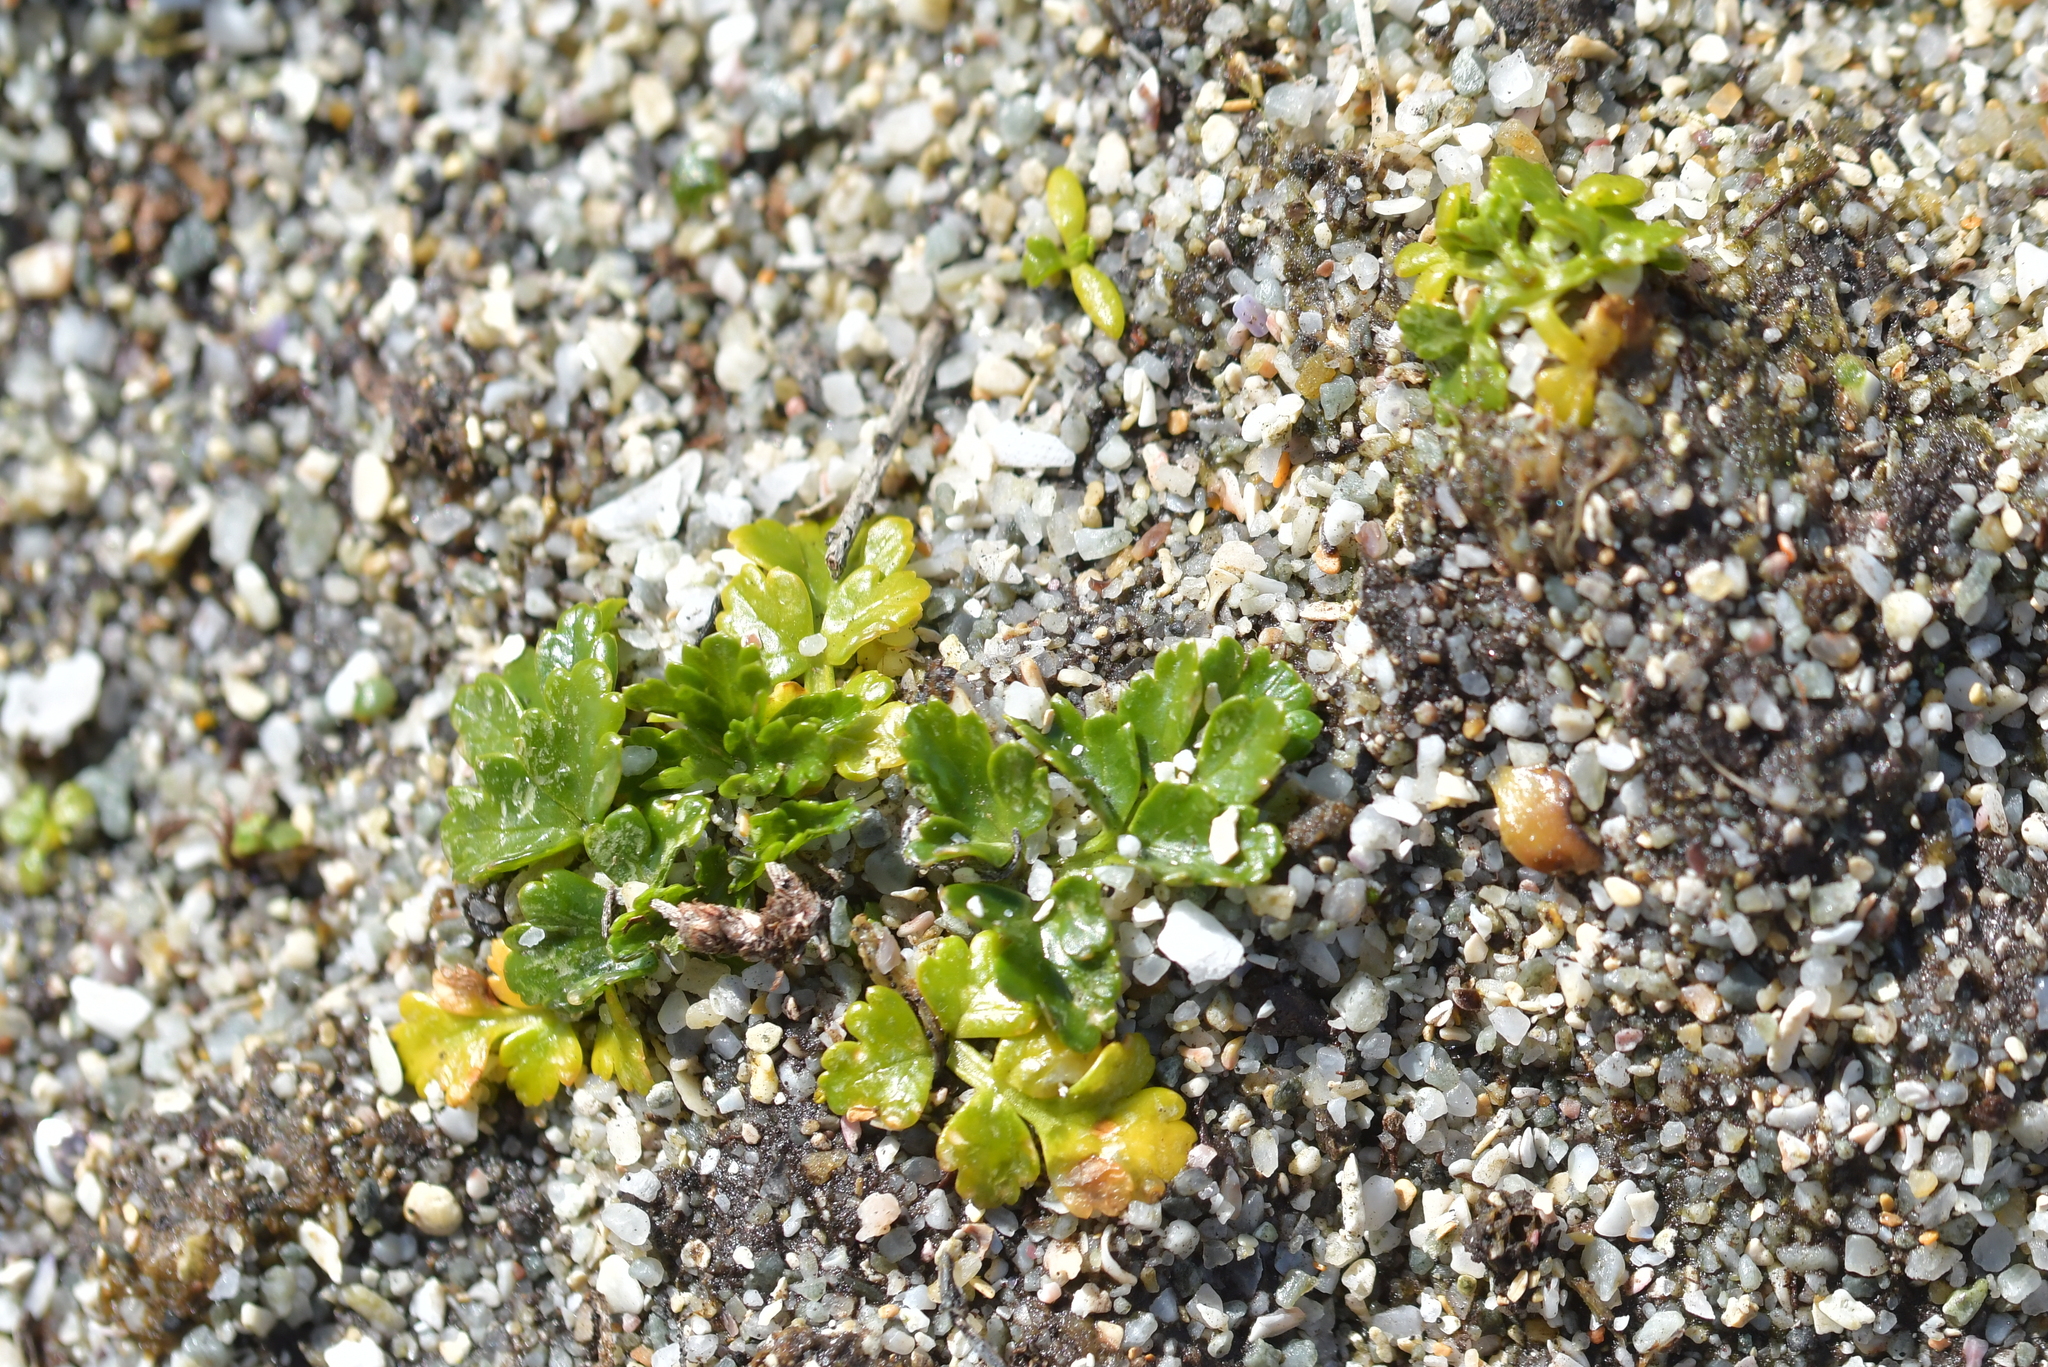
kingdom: Plantae
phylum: Tracheophyta
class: Magnoliopsida
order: Apiales
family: Apiaceae
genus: Apium
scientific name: Apium prostratum
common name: Prostrate marshwort
